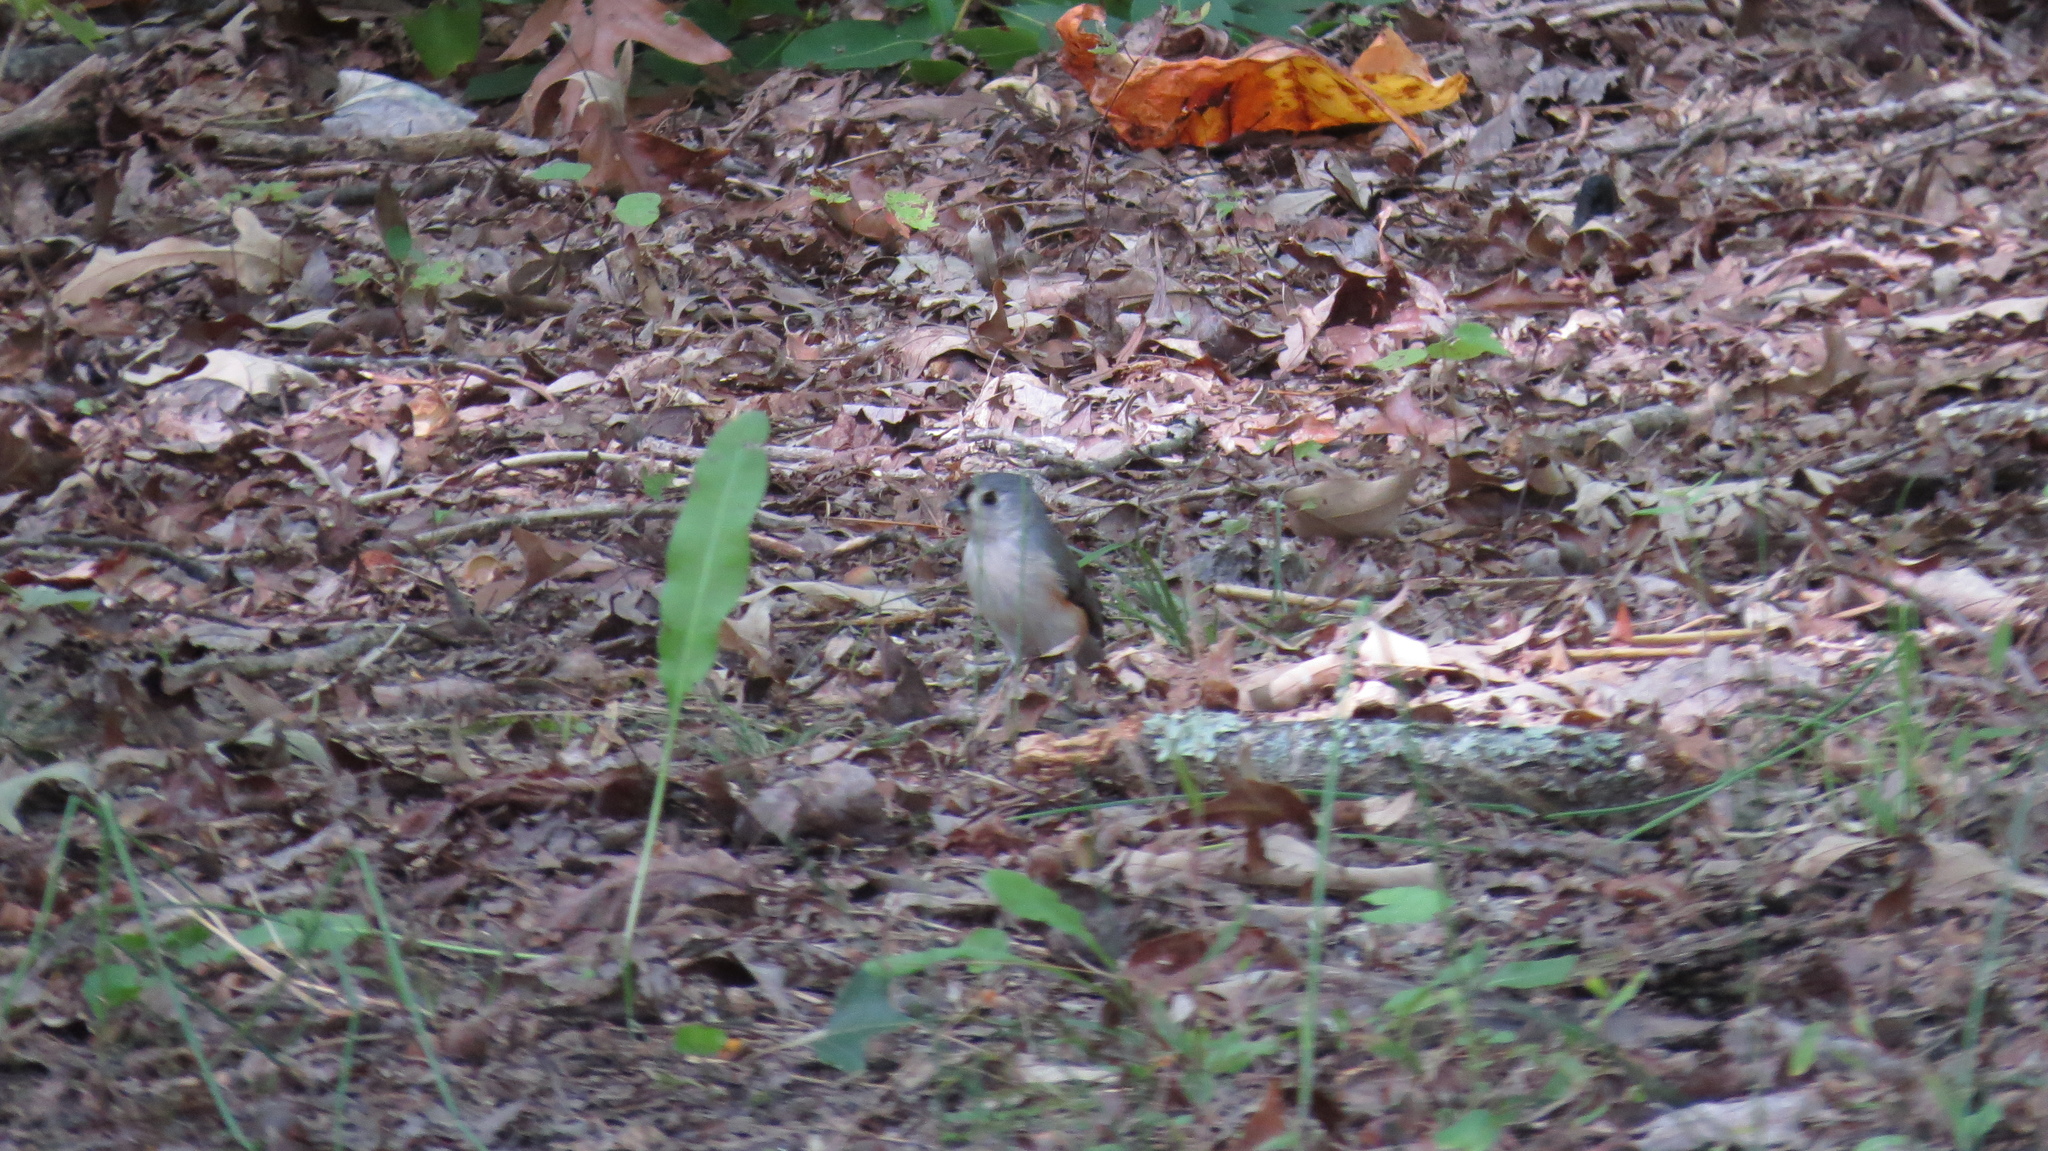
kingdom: Animalia
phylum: Chordata
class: Aves
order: Passeriformes
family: Paridae
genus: Baeolophus
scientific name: Baeolophus bicolor
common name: Tufted titmouse
